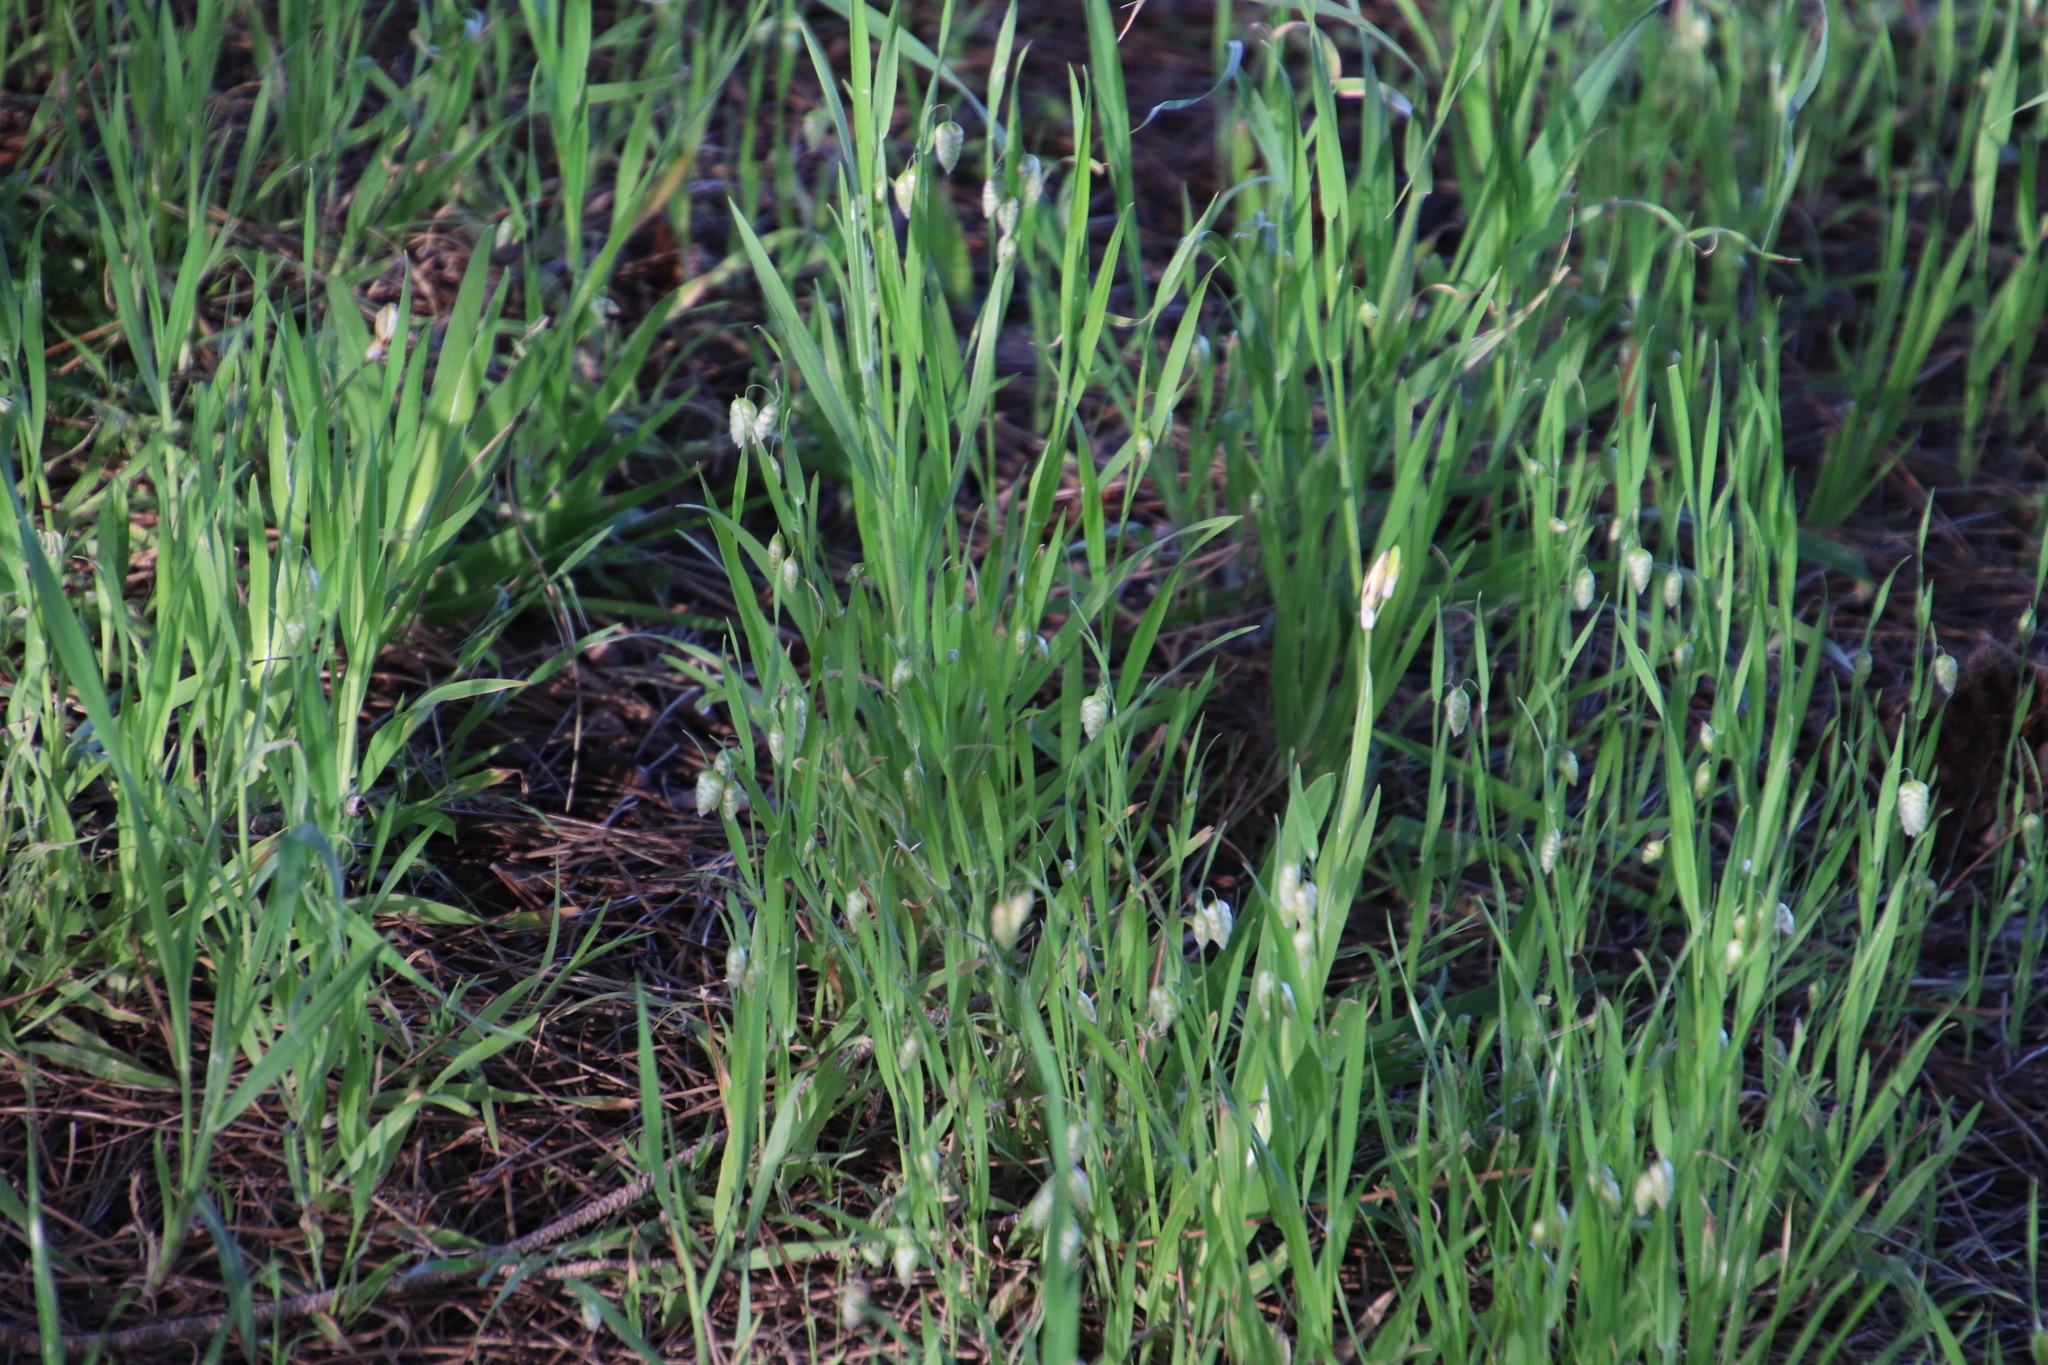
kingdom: Plantae
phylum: Tracheophyta
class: Liliopsida
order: Poales
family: Poaceae
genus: Briza
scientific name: Briza maxima
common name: Big quakinggrass
